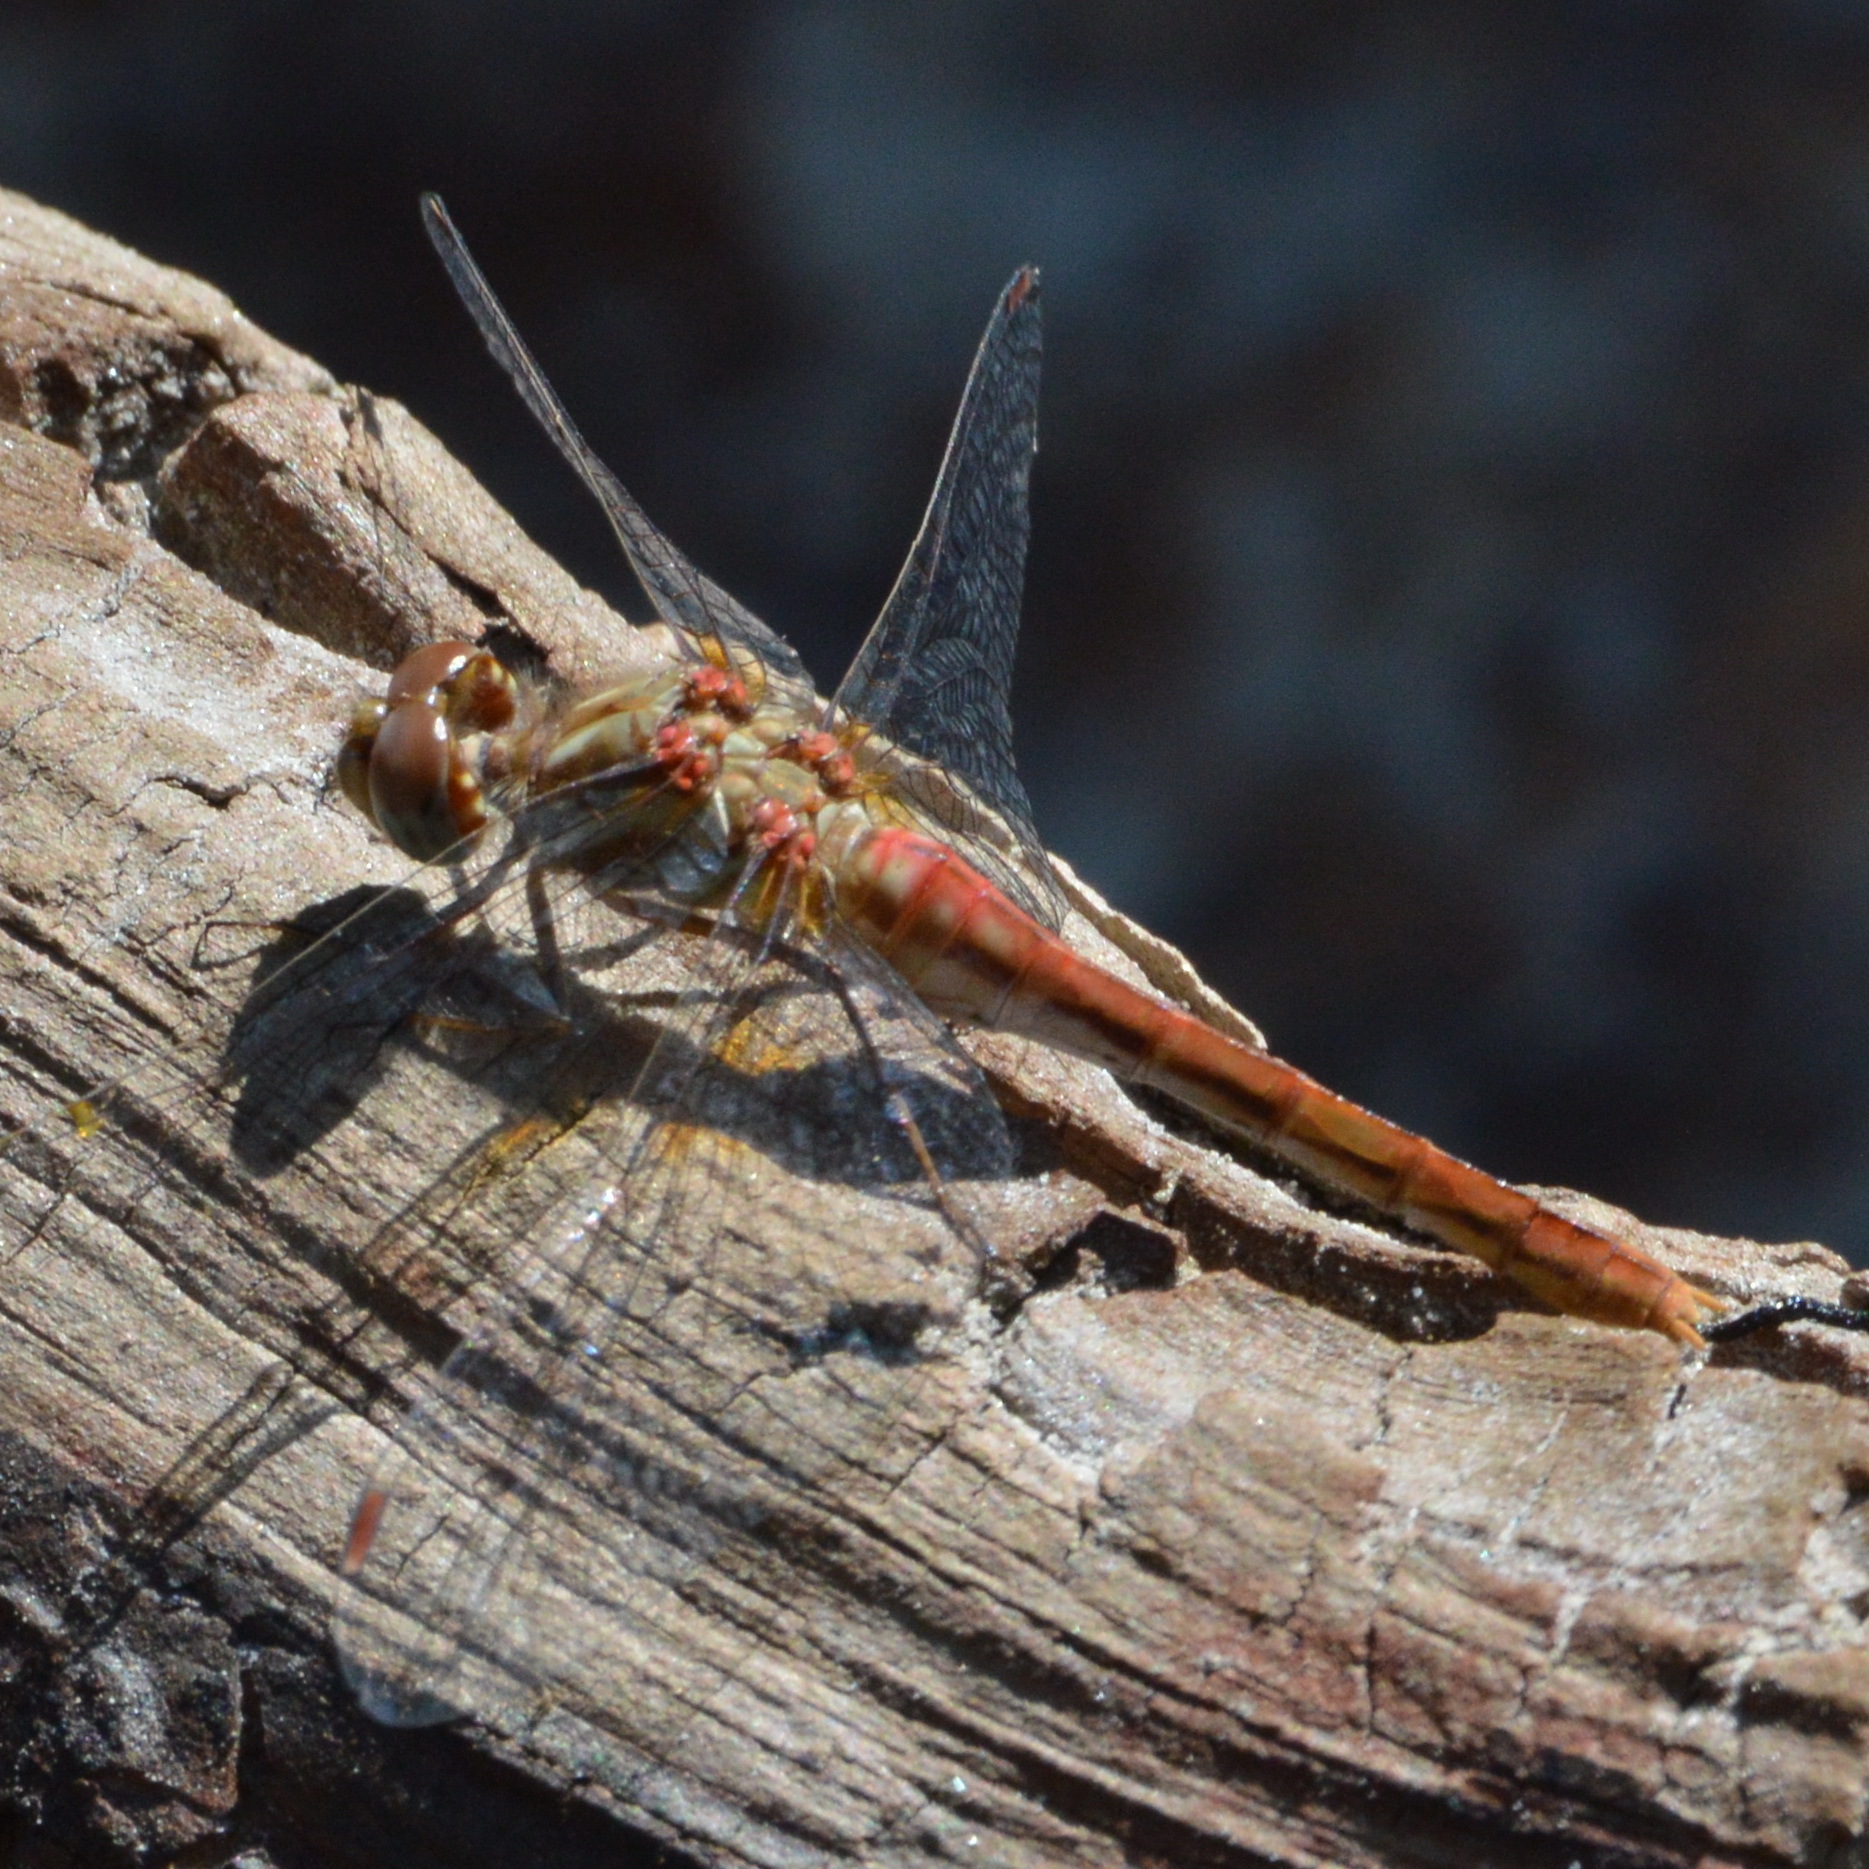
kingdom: Animalia
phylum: Arthropoda
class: Insecta
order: Odonata
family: Libellulidae
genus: Sympetrum
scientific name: Sympetrum pallipes
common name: Striped meadowhawk
